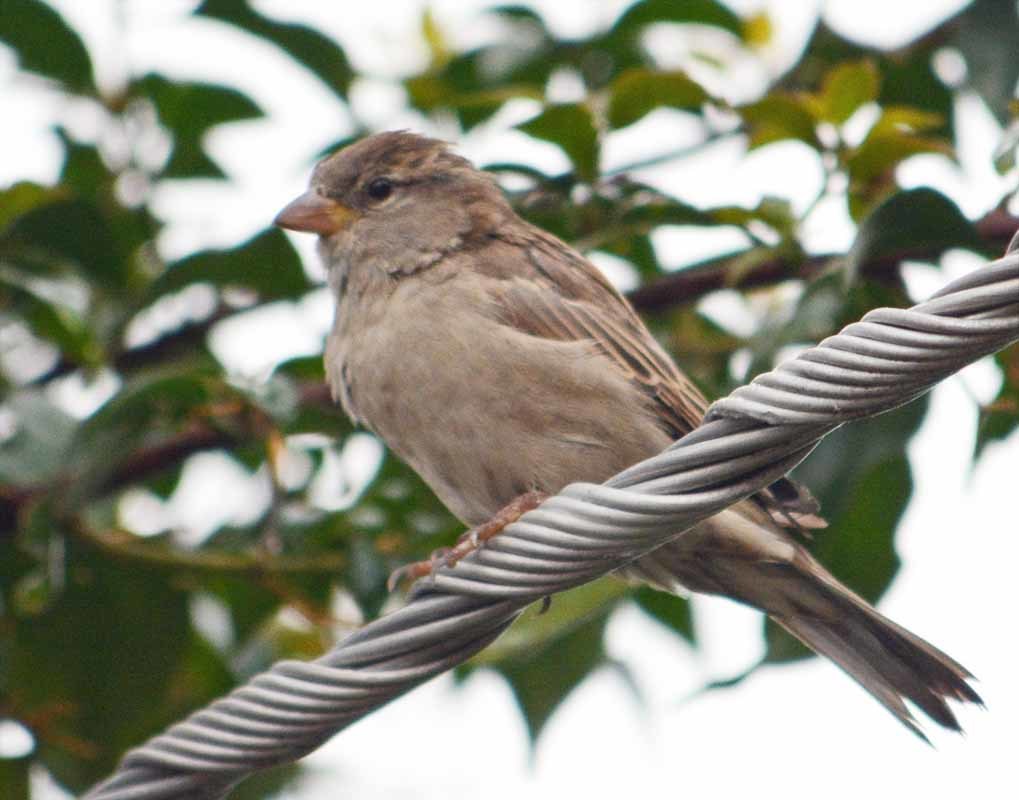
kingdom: Animalia
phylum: Chordata
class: Aves
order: Passeriformes
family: Passeridae
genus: Passer
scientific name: Passer domesticus
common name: House sparrow
